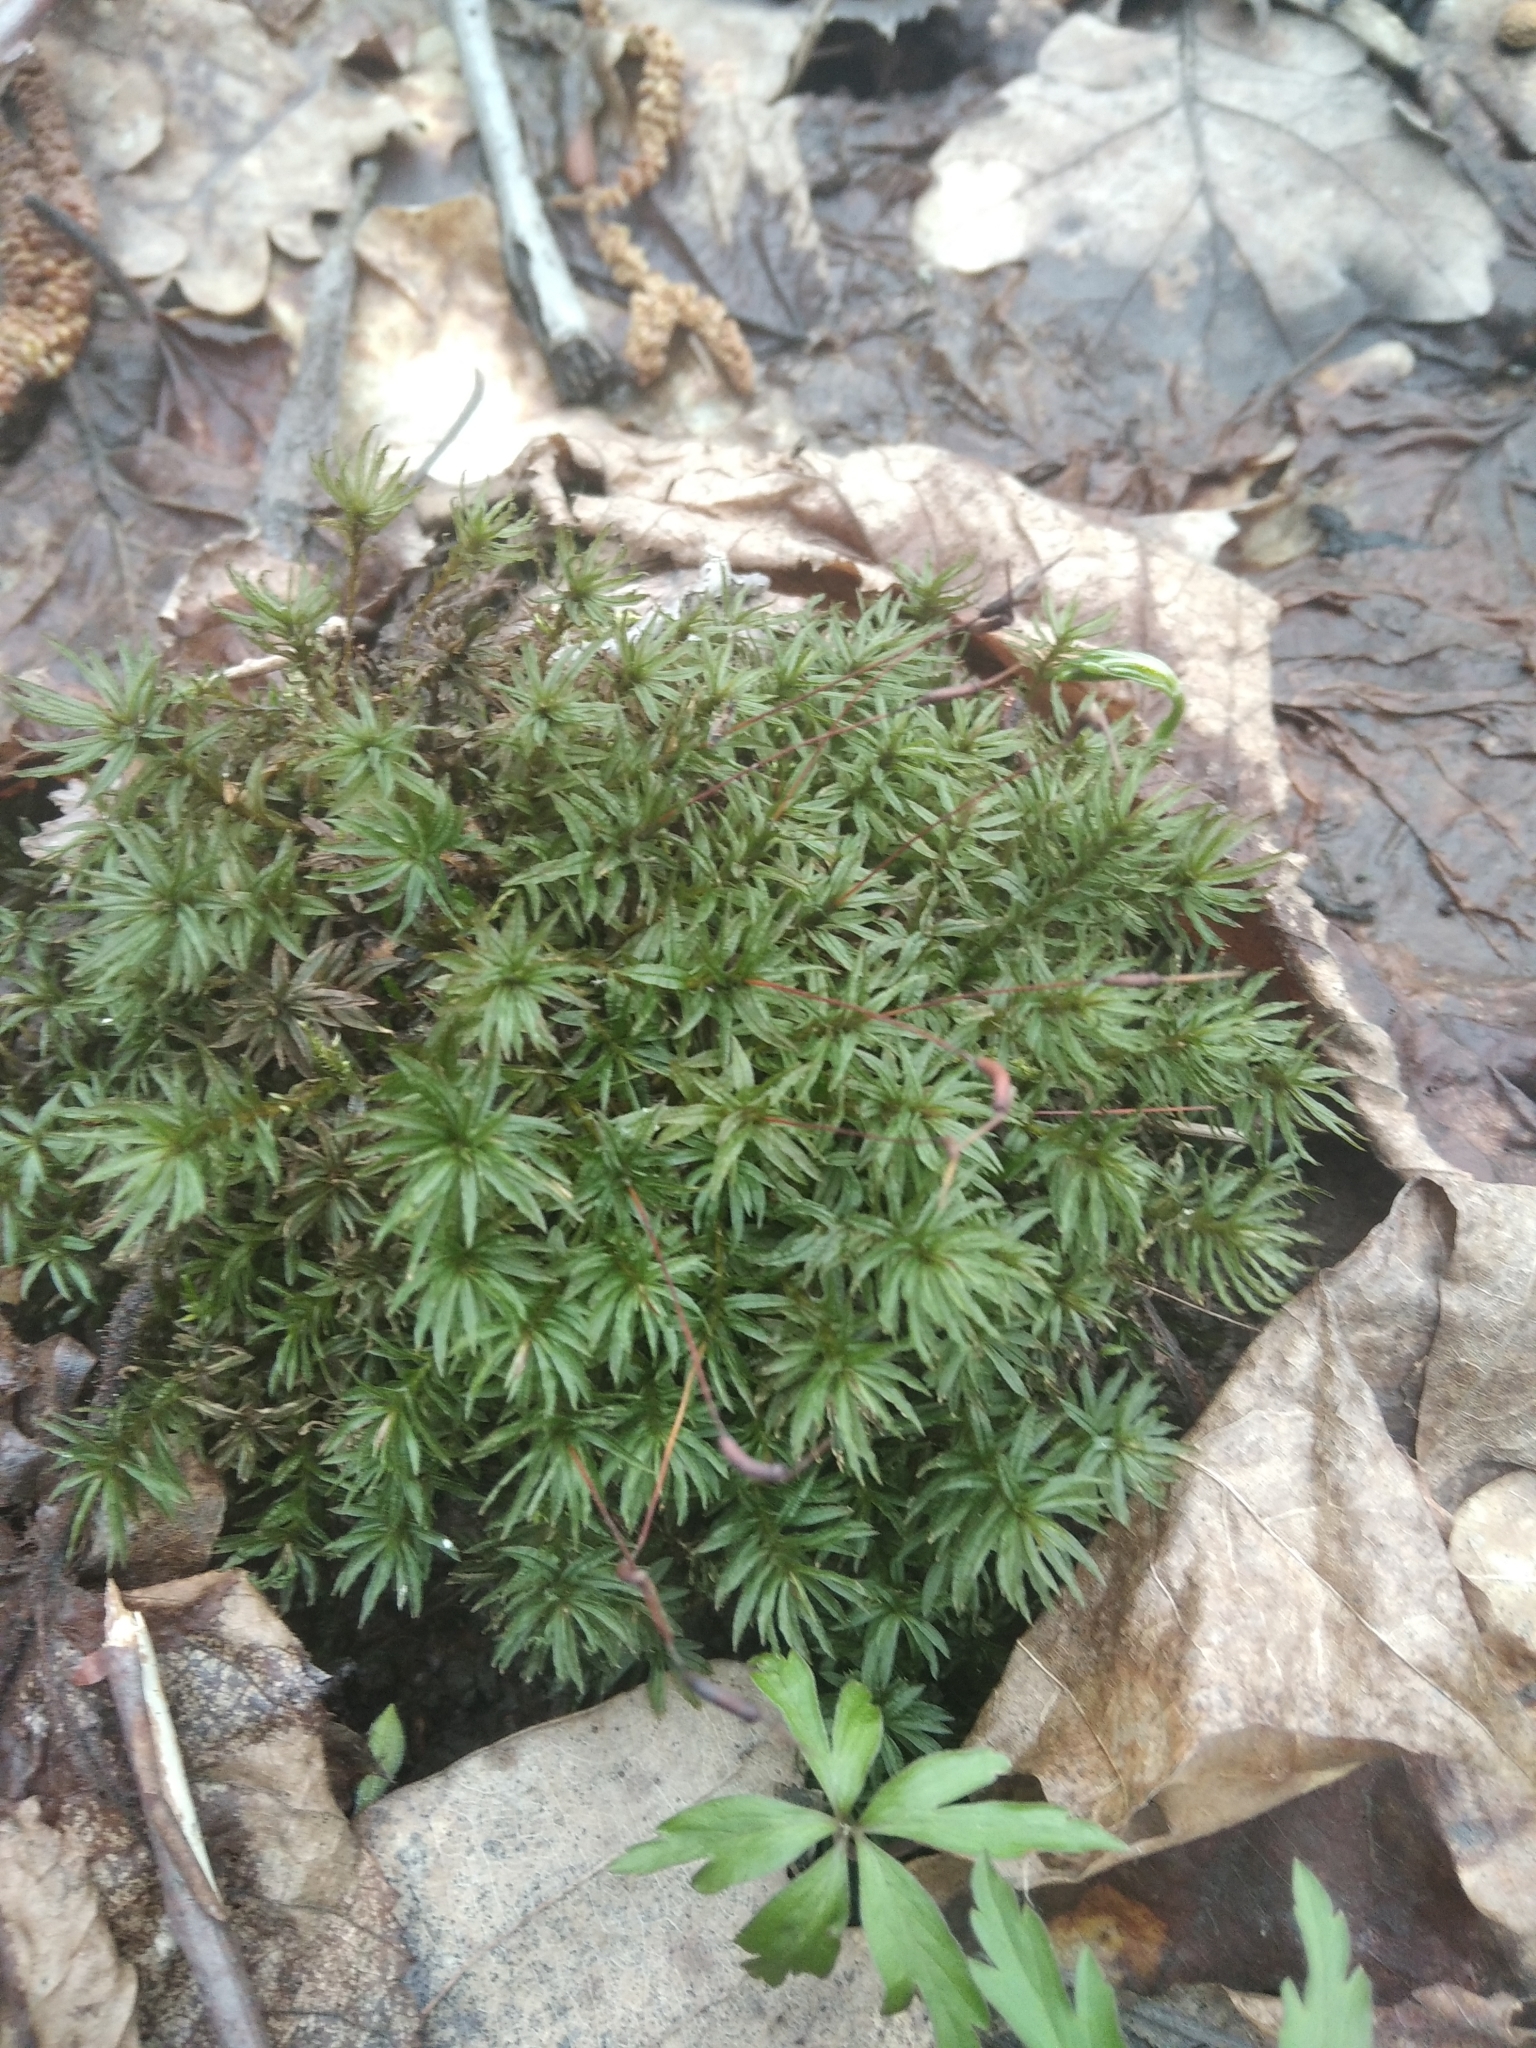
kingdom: Plantae
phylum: Bryophyta
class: Polytrichopsida
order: Polytrichales
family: Polytrichaceae
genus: Atrichum
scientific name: Atrichum undulatum
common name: Common smoothcap
